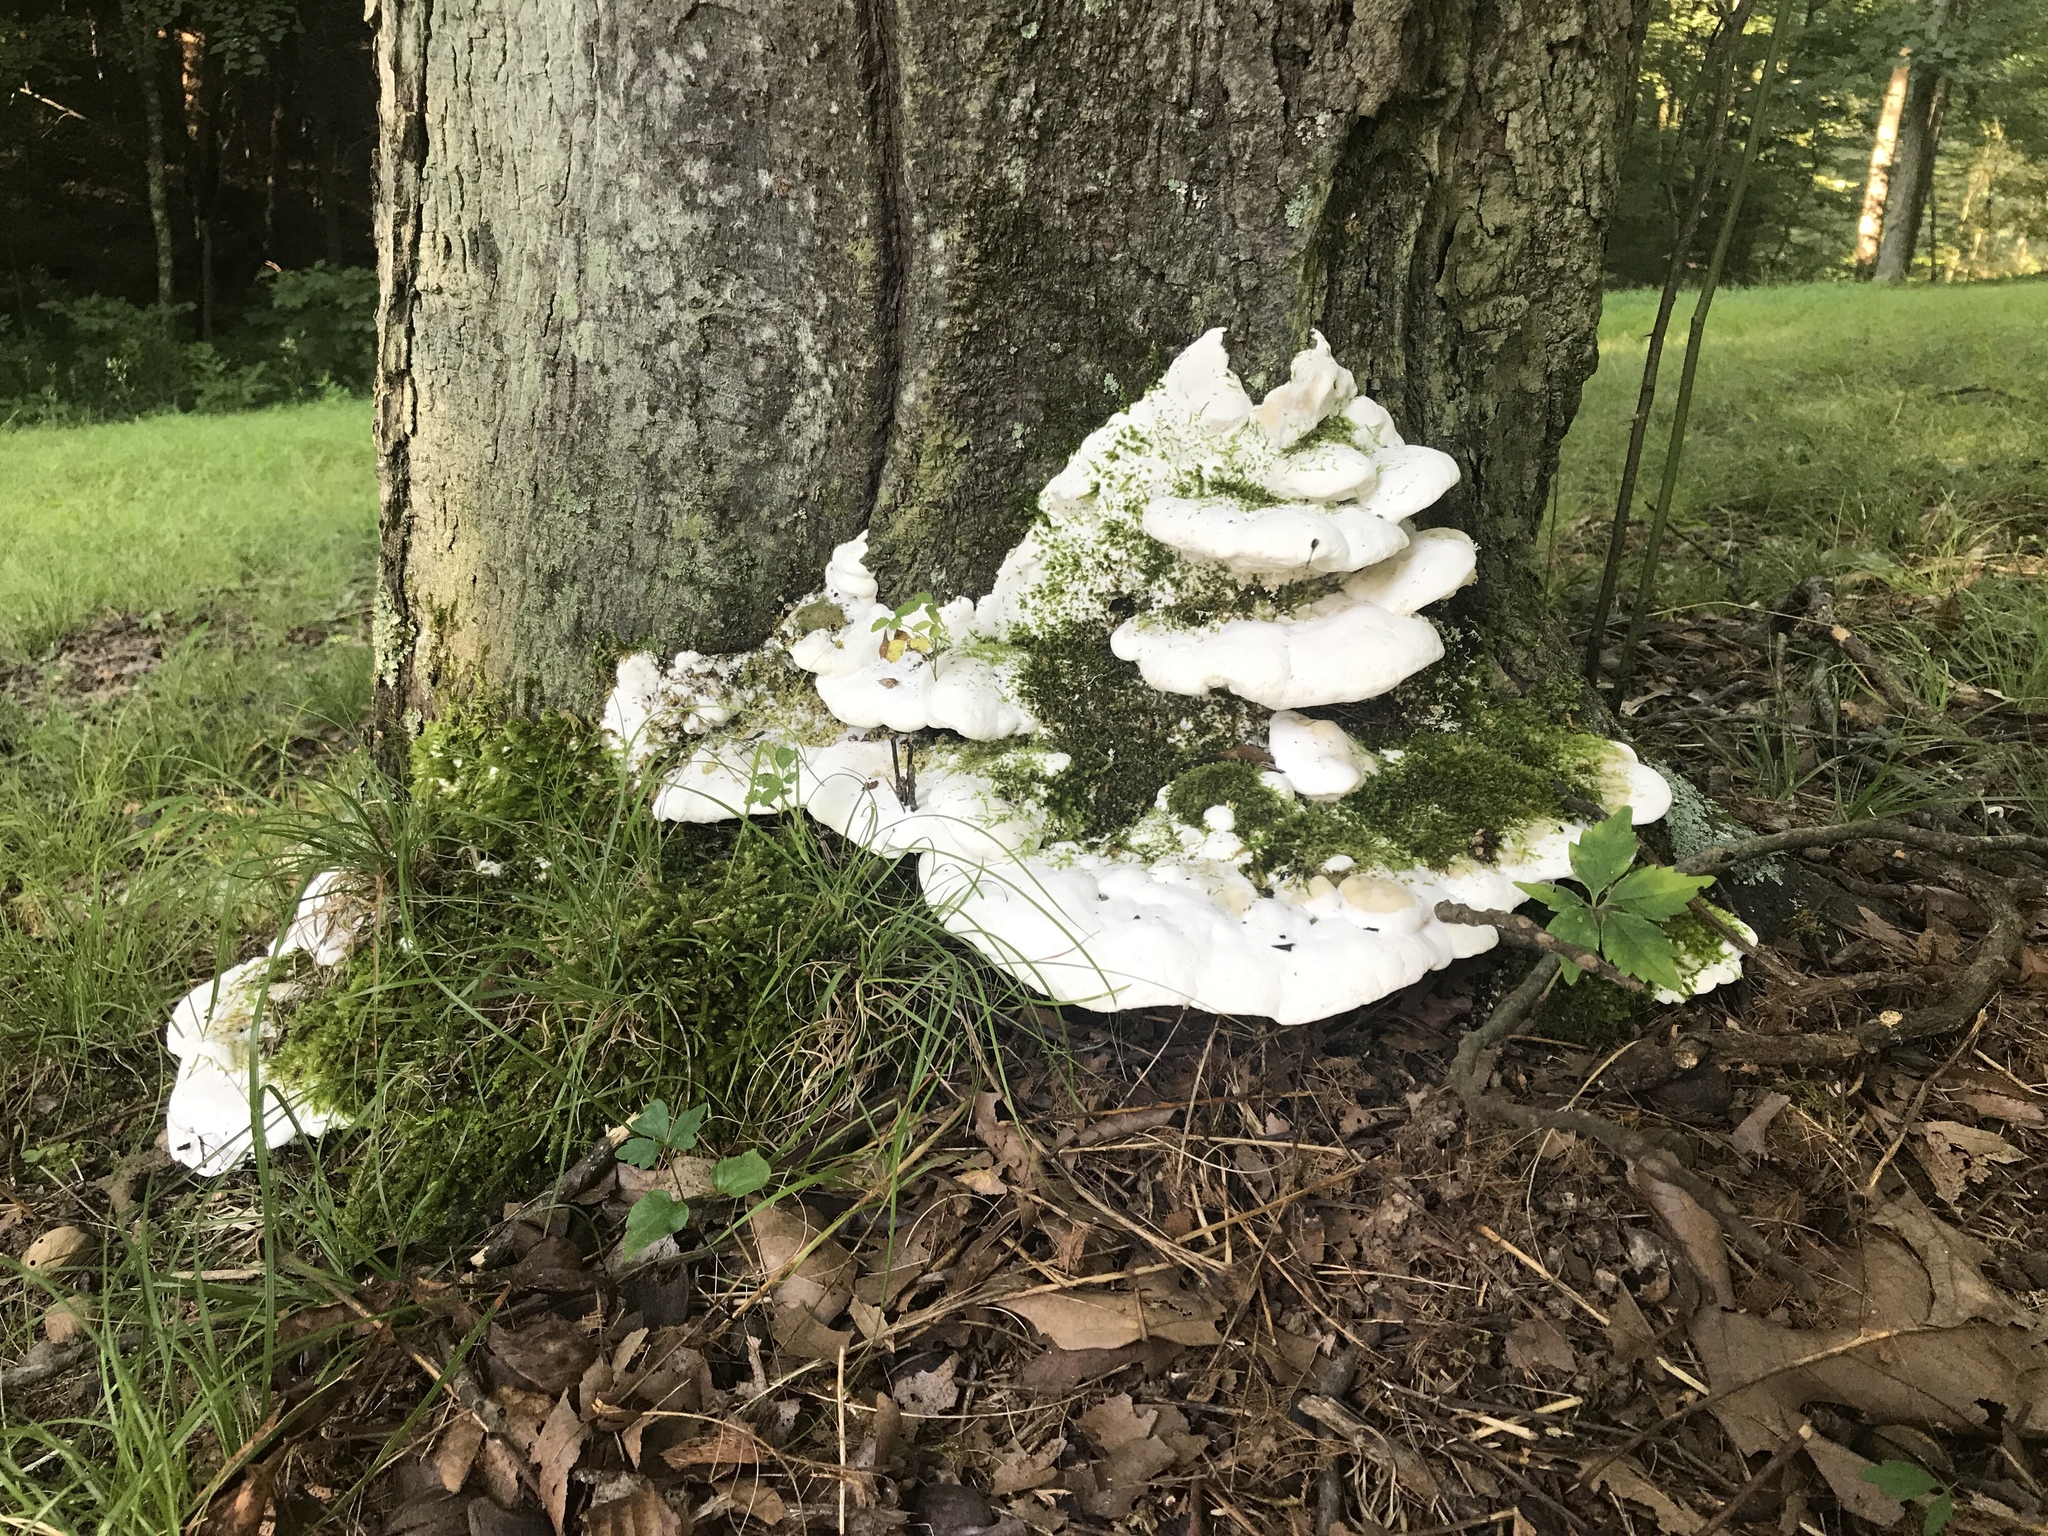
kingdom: Fungi
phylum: Basidiomycota
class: Agaricomycetes
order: Hymenochaetales
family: Oxyporaceae
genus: Oxyporus
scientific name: Oxyporus populinus
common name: Poplar bracket
